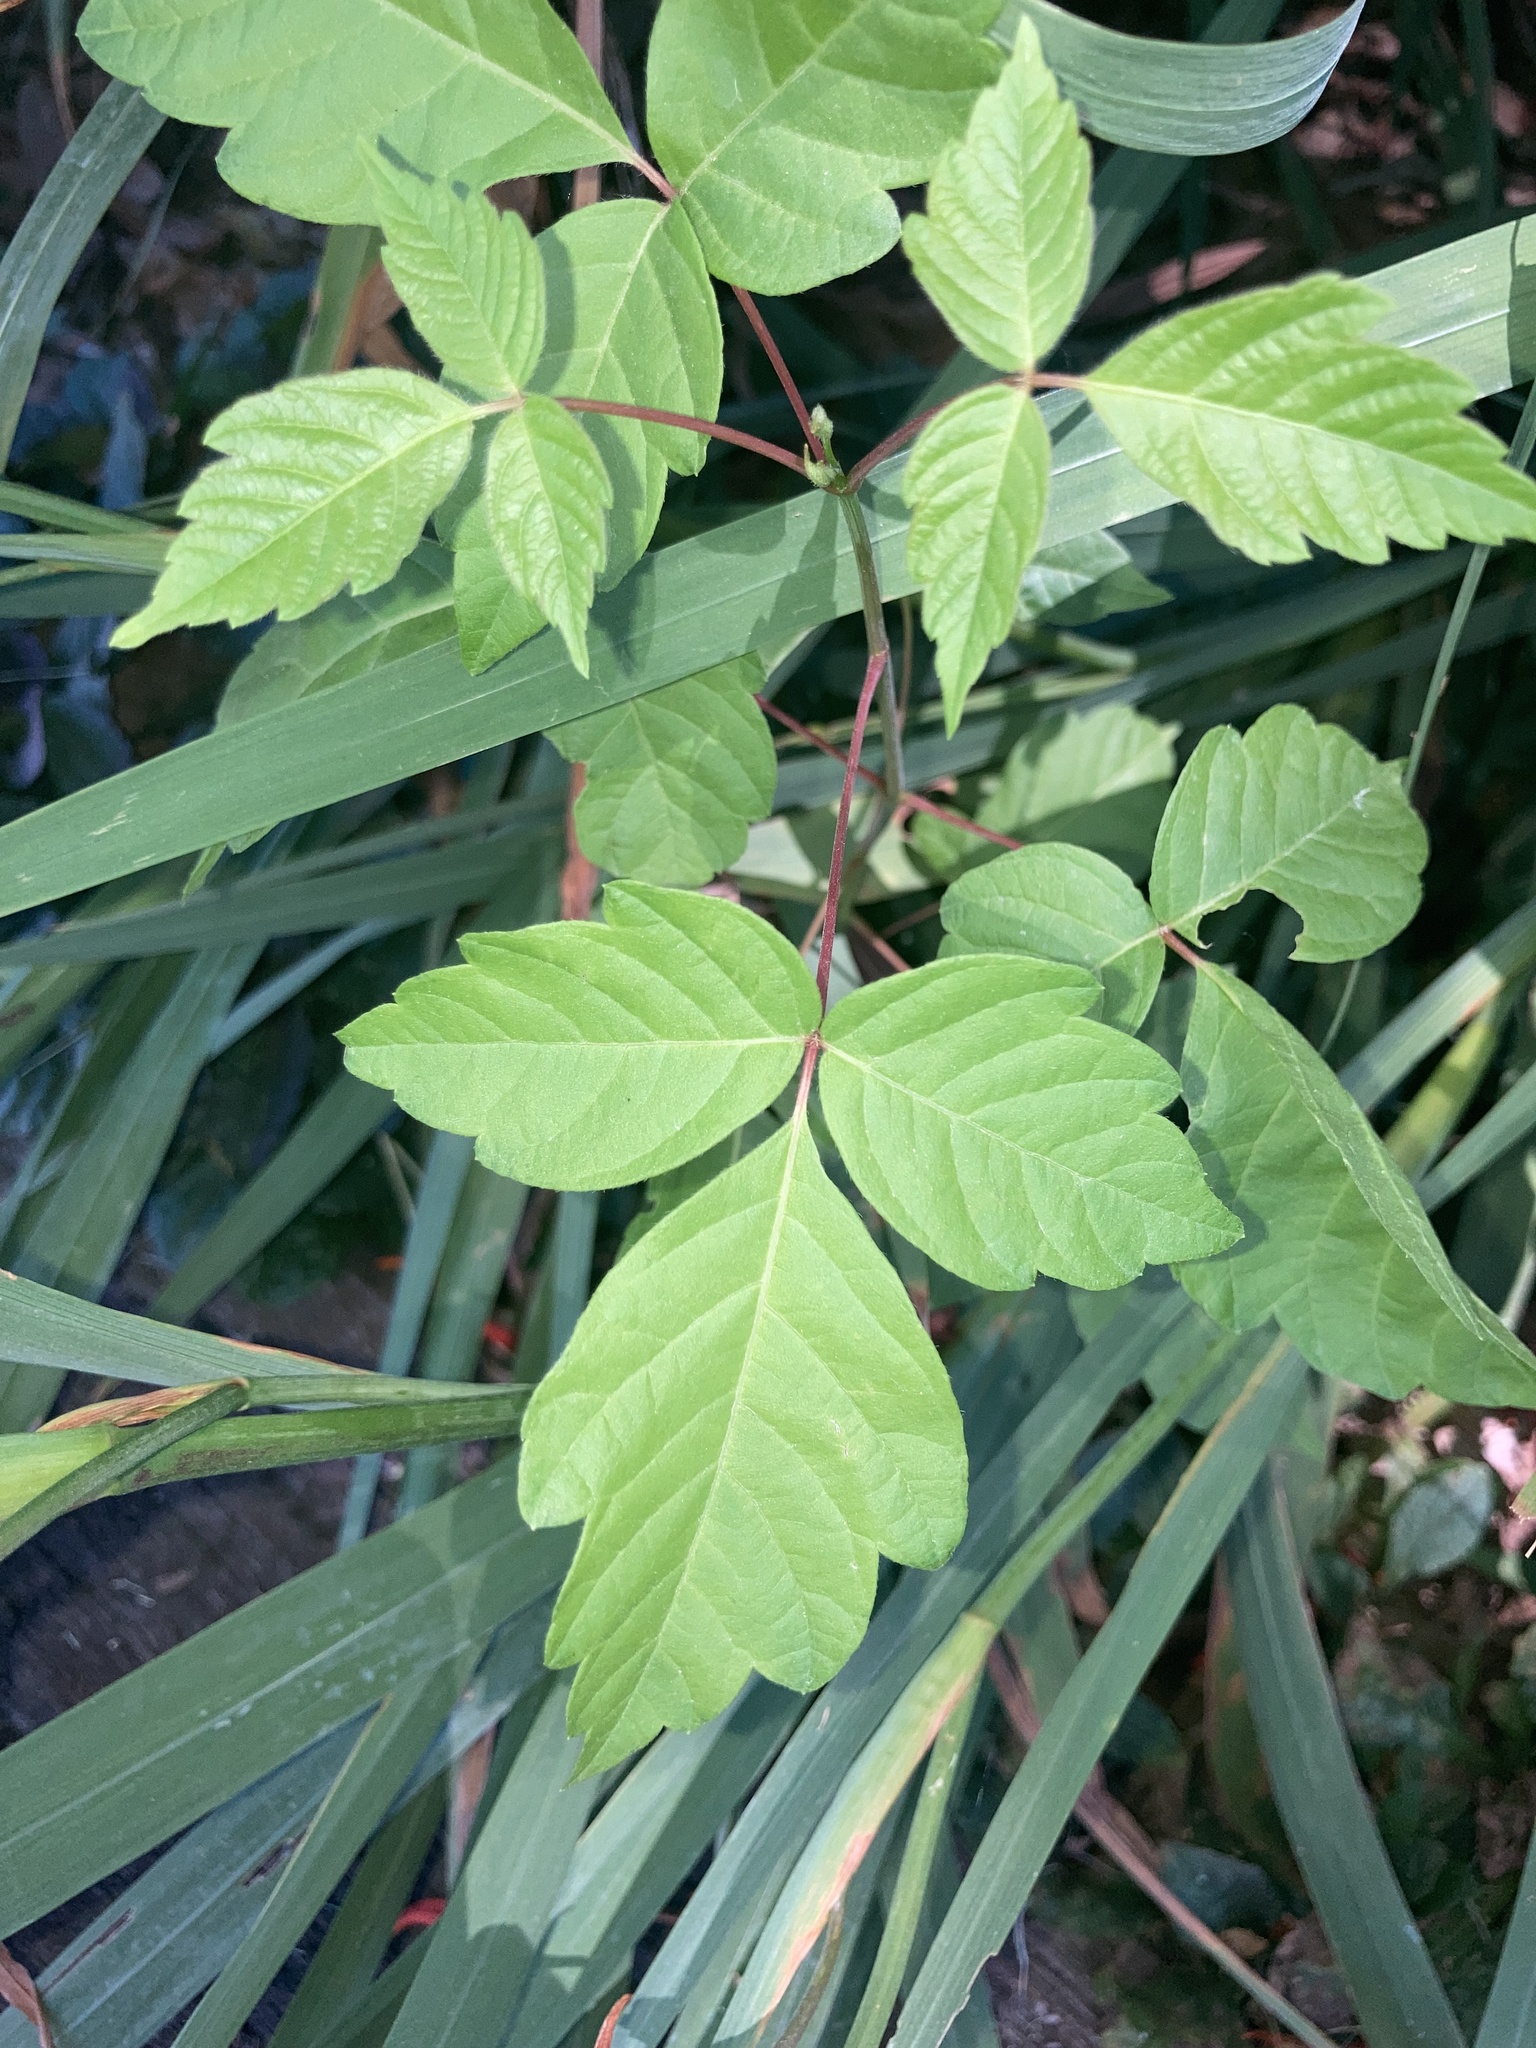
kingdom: Plantae
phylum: Tracheophyta
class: Magnoliopsida
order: Sapindales
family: Sapindaceae
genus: Acer
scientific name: Acer negundo
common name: Ashleaf maple
